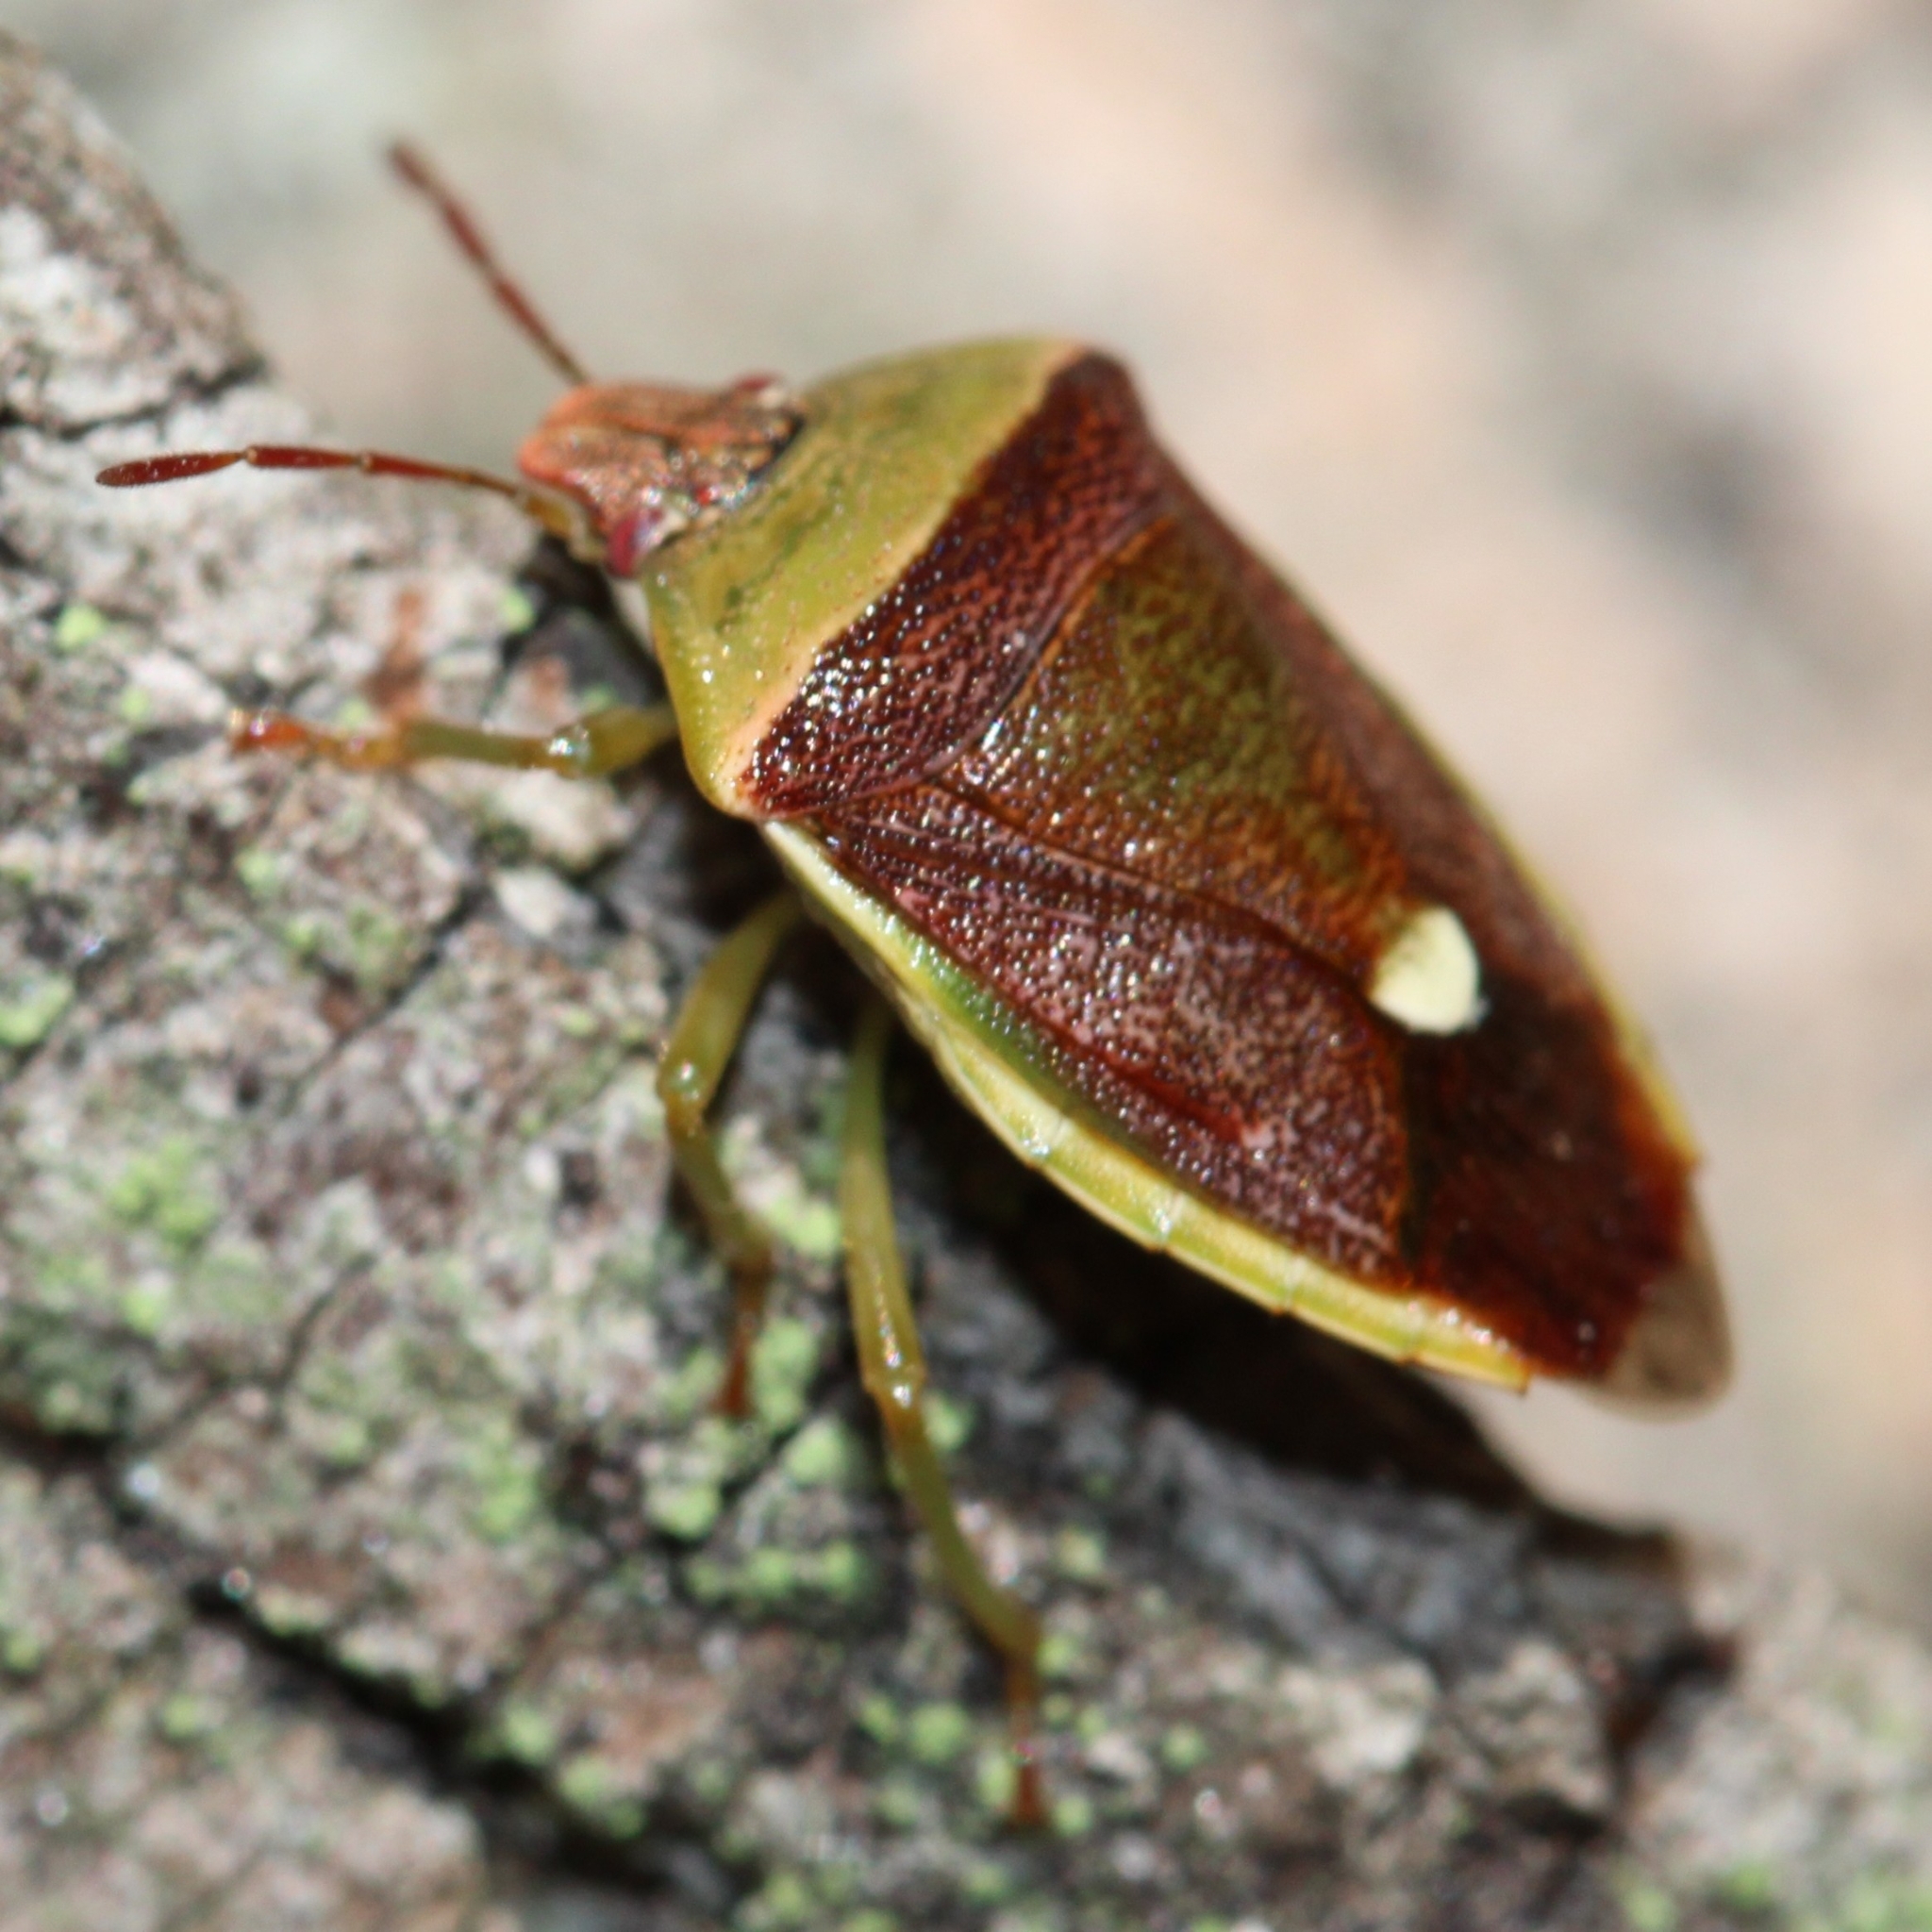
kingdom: Animalia
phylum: Arthropoda
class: Insecta
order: Hemiptera
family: Pentatomidae
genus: Banasa
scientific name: Banasa dimidiata
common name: Green burgundy stink bug
